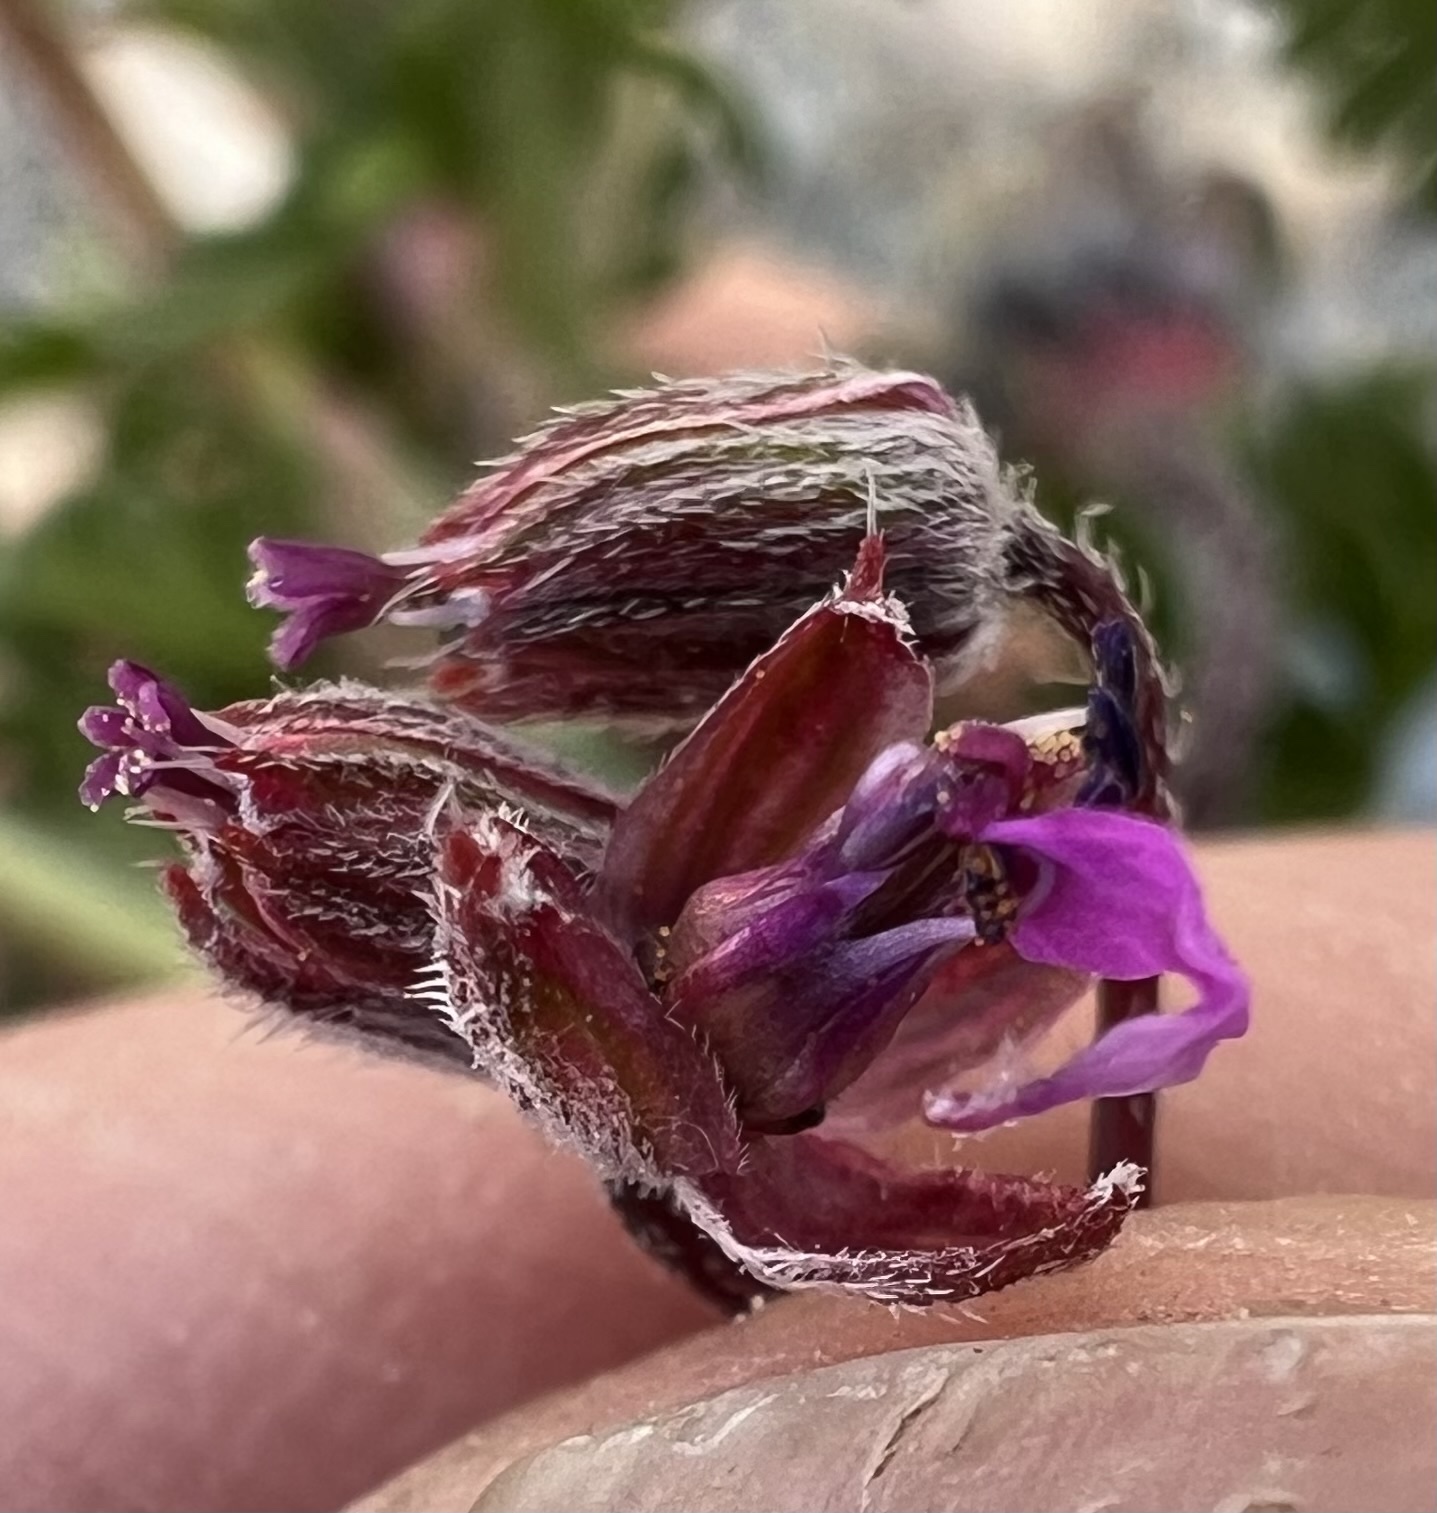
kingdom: Plantae
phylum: Tracheophyta
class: Magnoliopsida
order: Geraniales
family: Geraniaceae
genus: Erodium
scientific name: Erodium cicutarium
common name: Common stork's-bill
